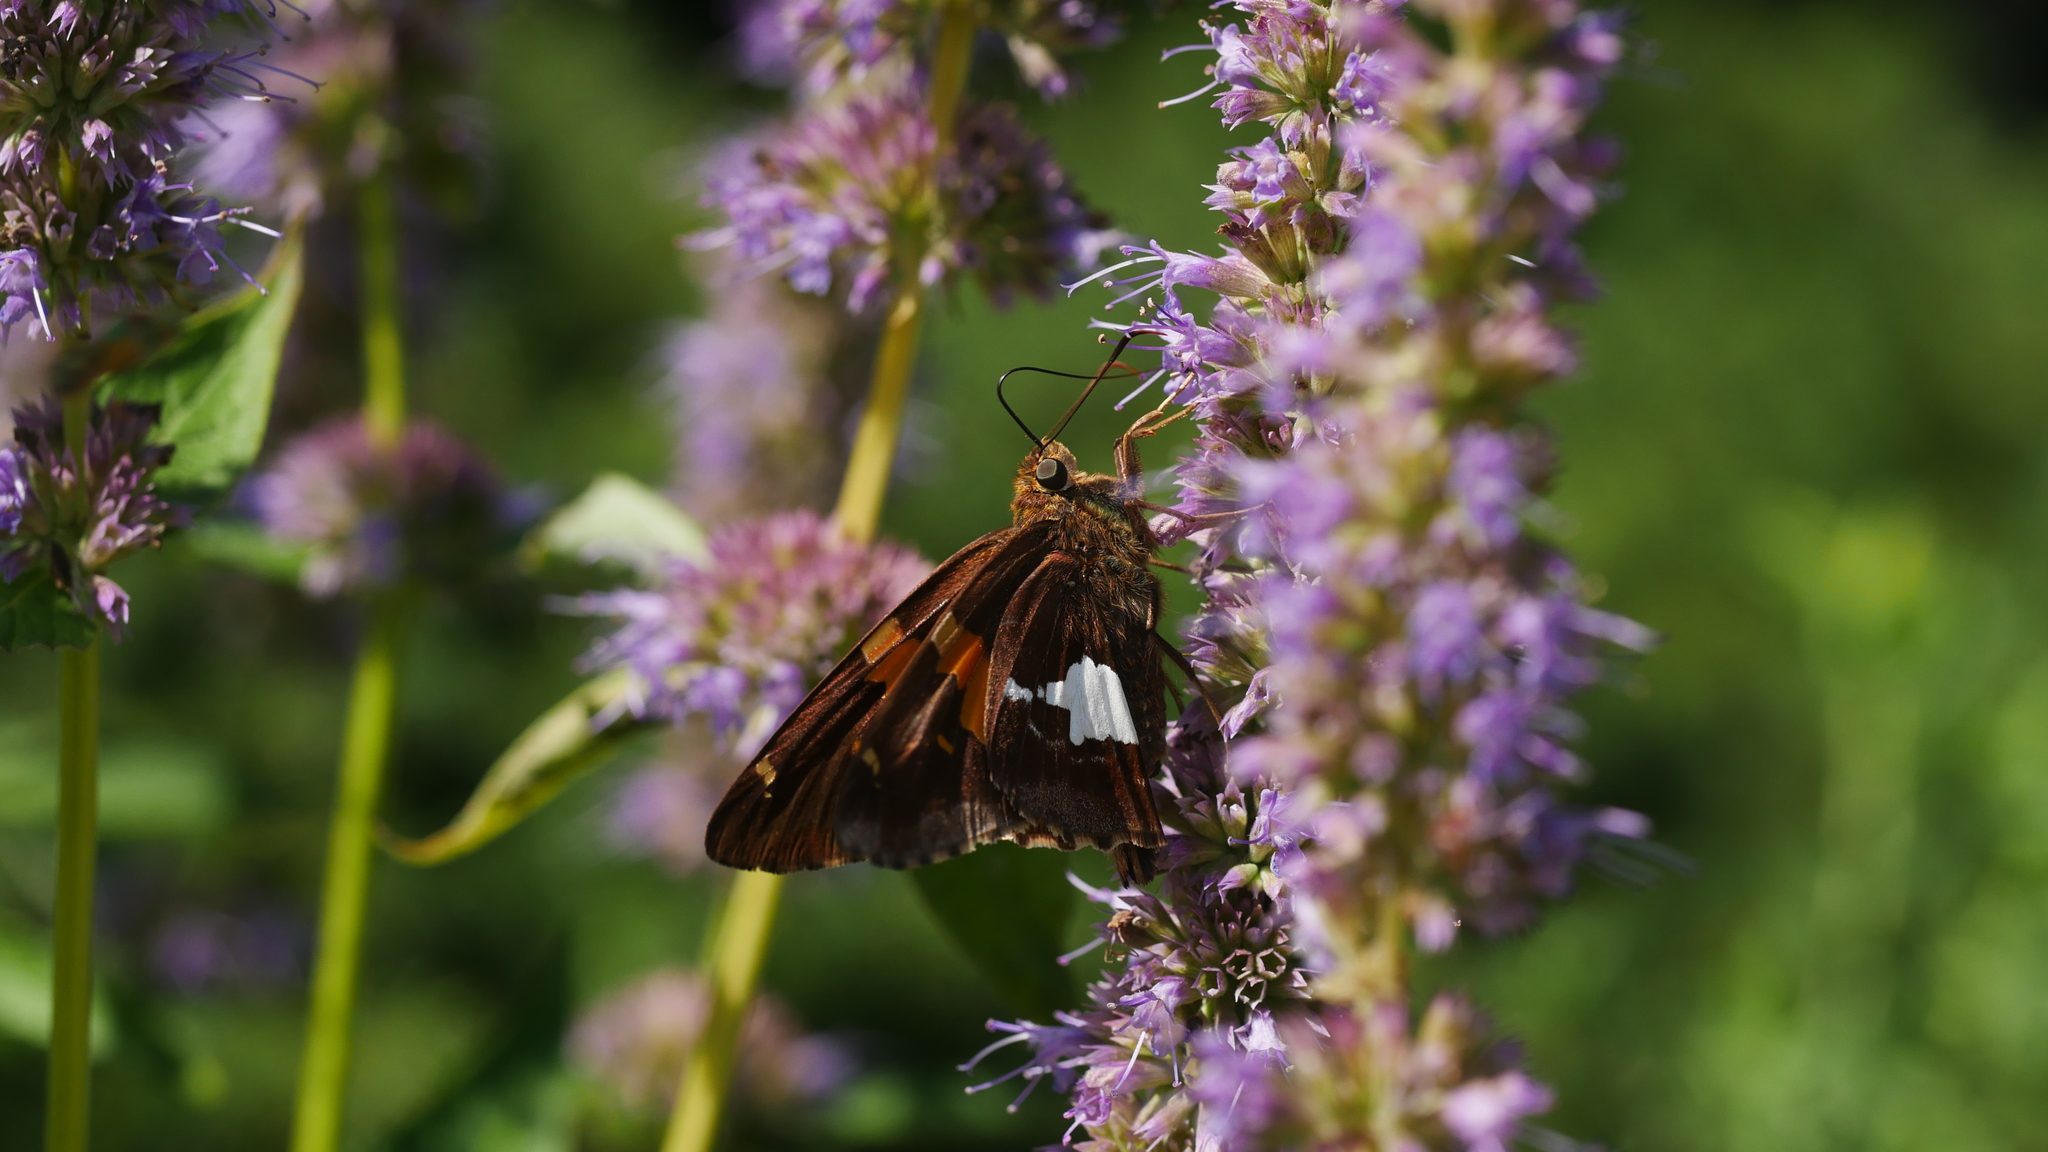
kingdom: Animalia
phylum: Arthropoda
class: Insecta
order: Lepidoptera
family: Hesperiidae
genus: Epargyreus
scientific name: Epargyreus clarus
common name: Silver-spotted skipper
